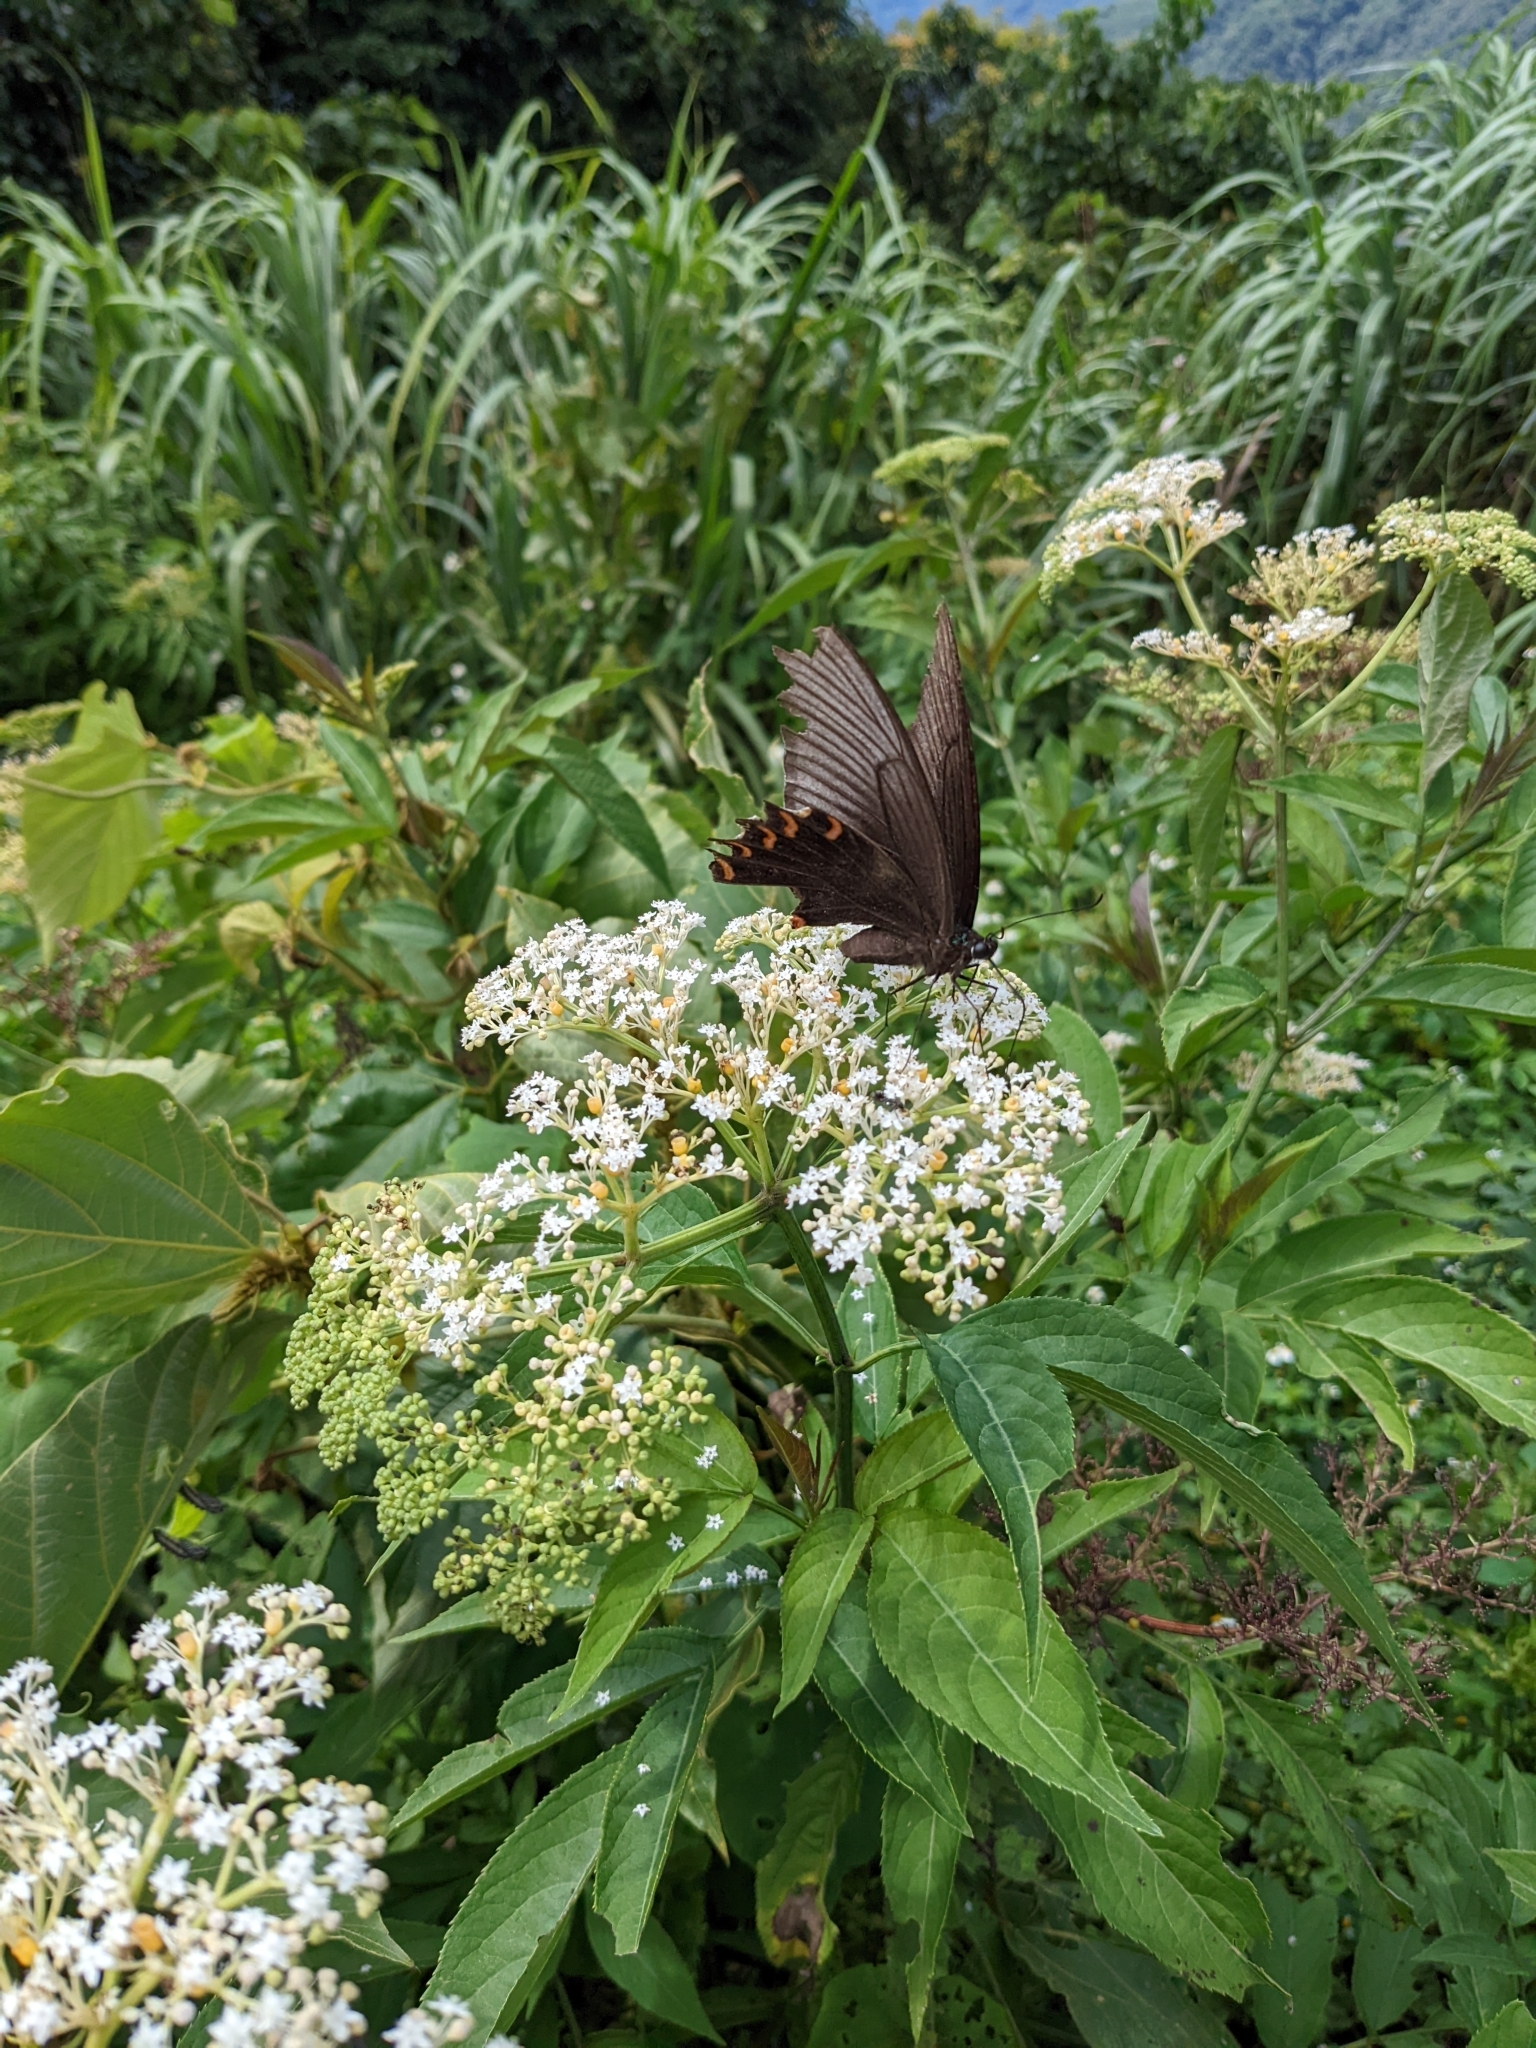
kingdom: Animalia
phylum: Arthropoda
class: Insecta
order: Lepidoptera
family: Papilionidae
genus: Byasa
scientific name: Byasa confusus
